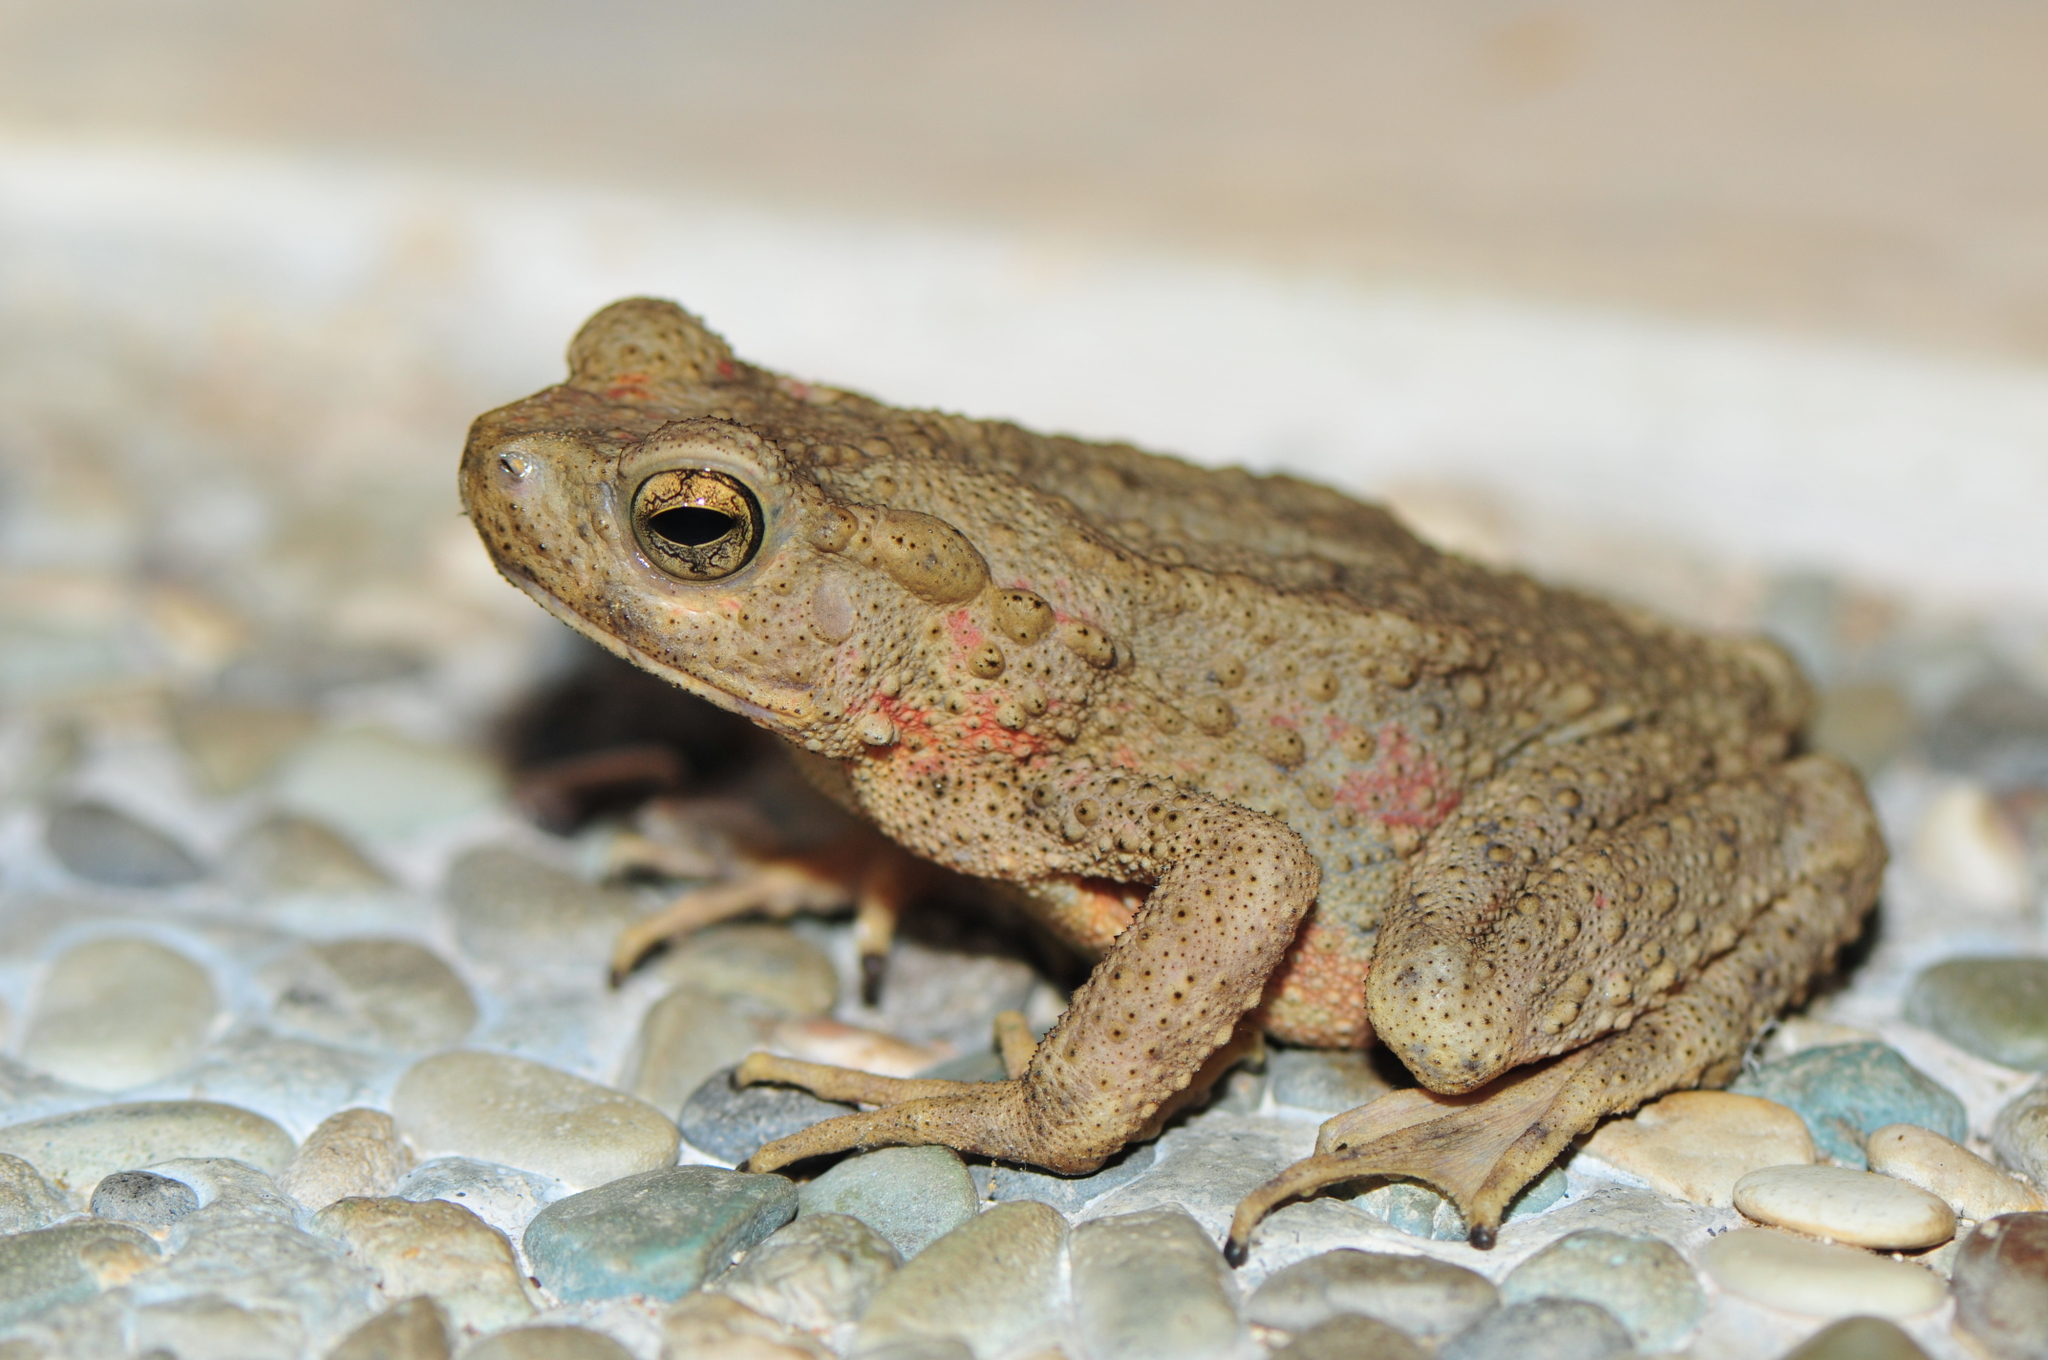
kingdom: Animalia
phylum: Chordata
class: Amphibia
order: Anura
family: Bufonidae
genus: Phrynoidis
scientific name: Phrynoidis asper
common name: Asian giant toad
